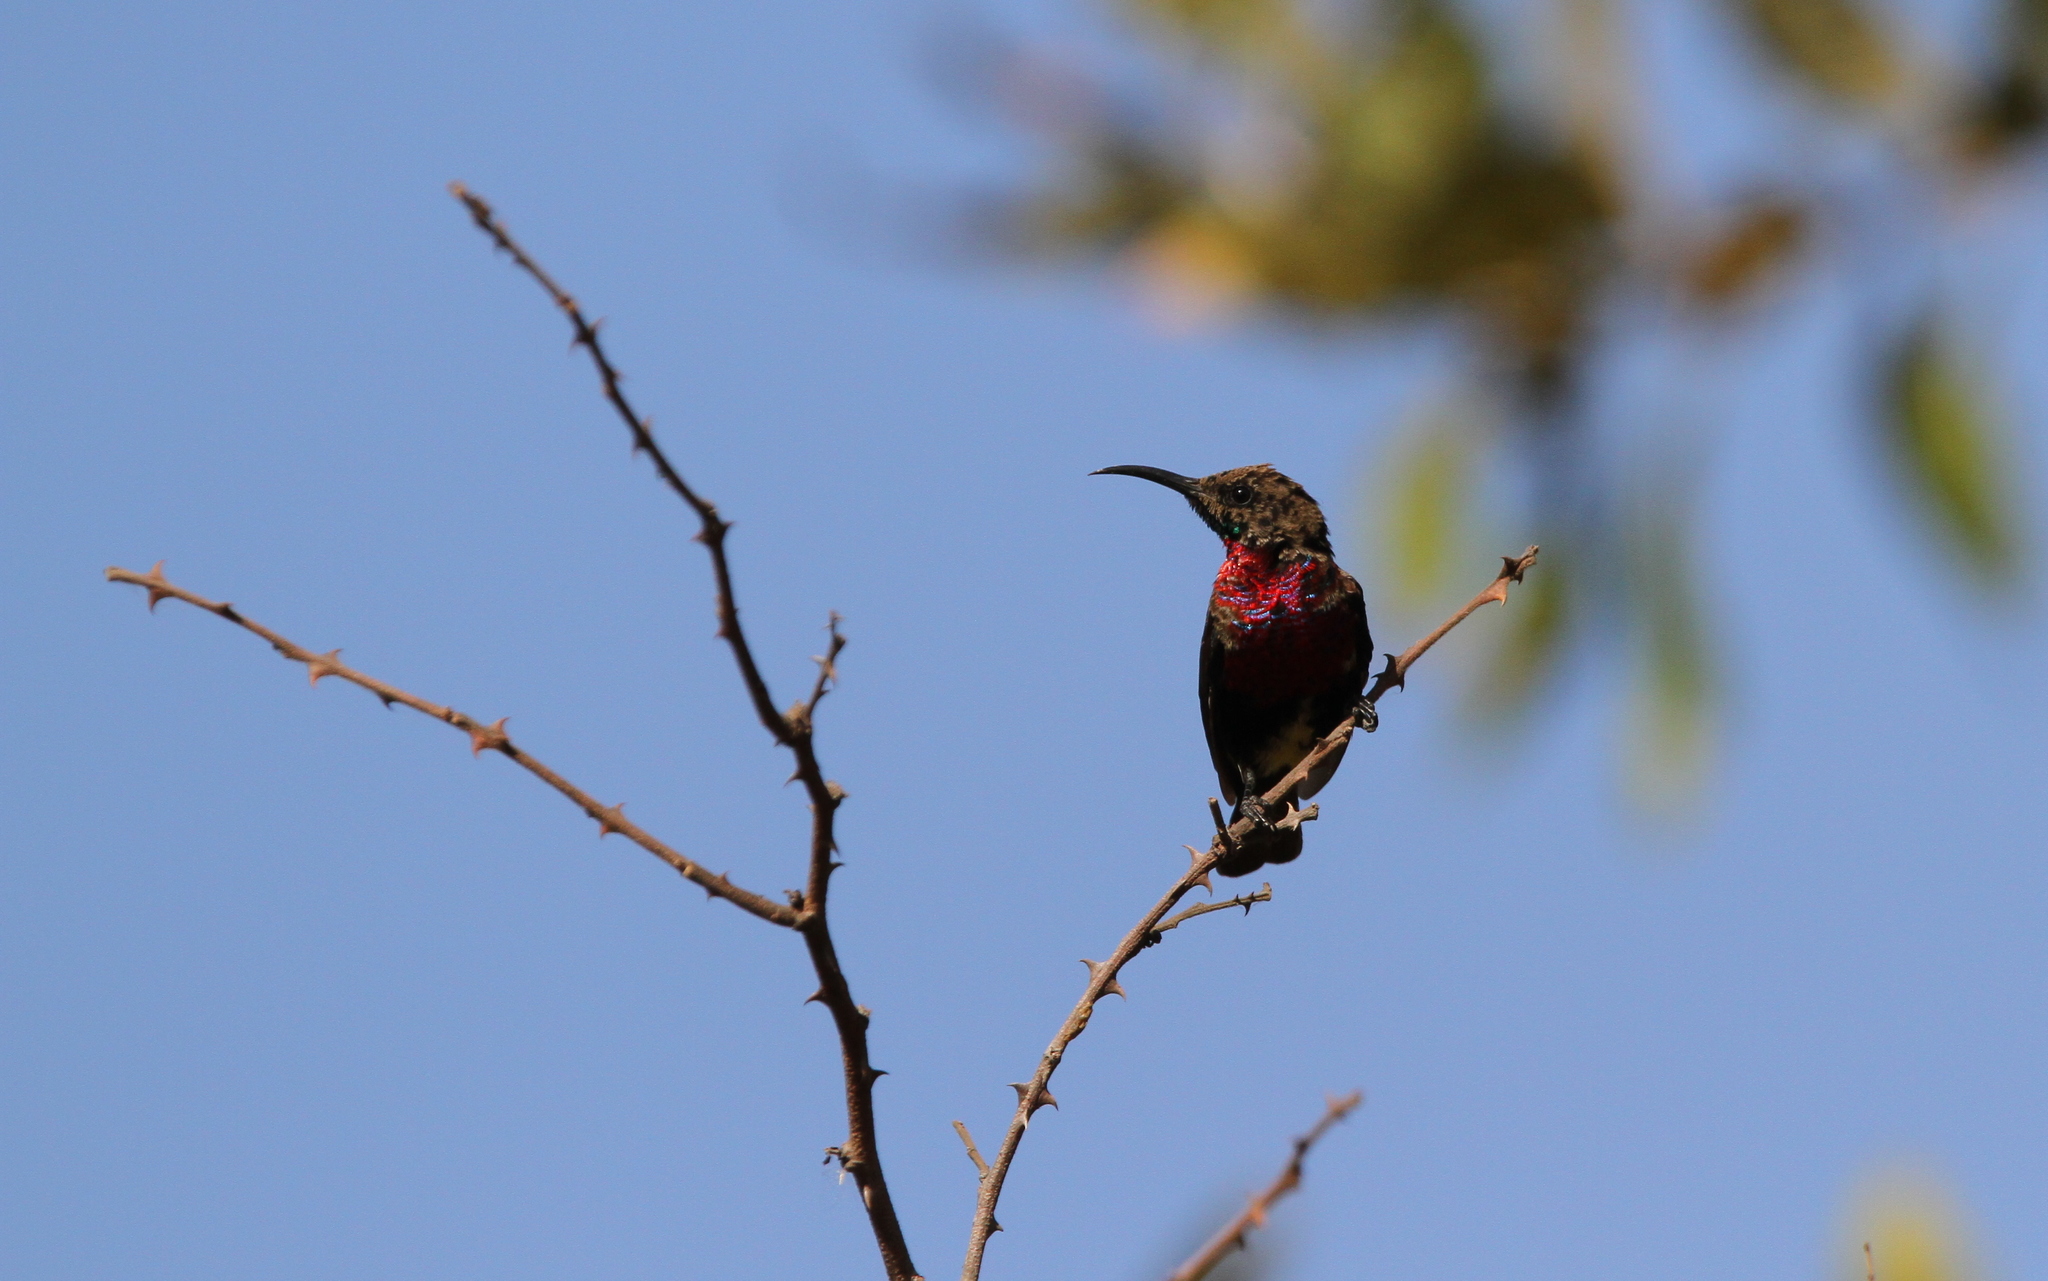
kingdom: Animalia
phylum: Chordata
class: Aves
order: Passeriformes
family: Nectariniidae
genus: Chalcomitra
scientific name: Chalcomitra senegalensis
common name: Scarlet-chested sunbird
